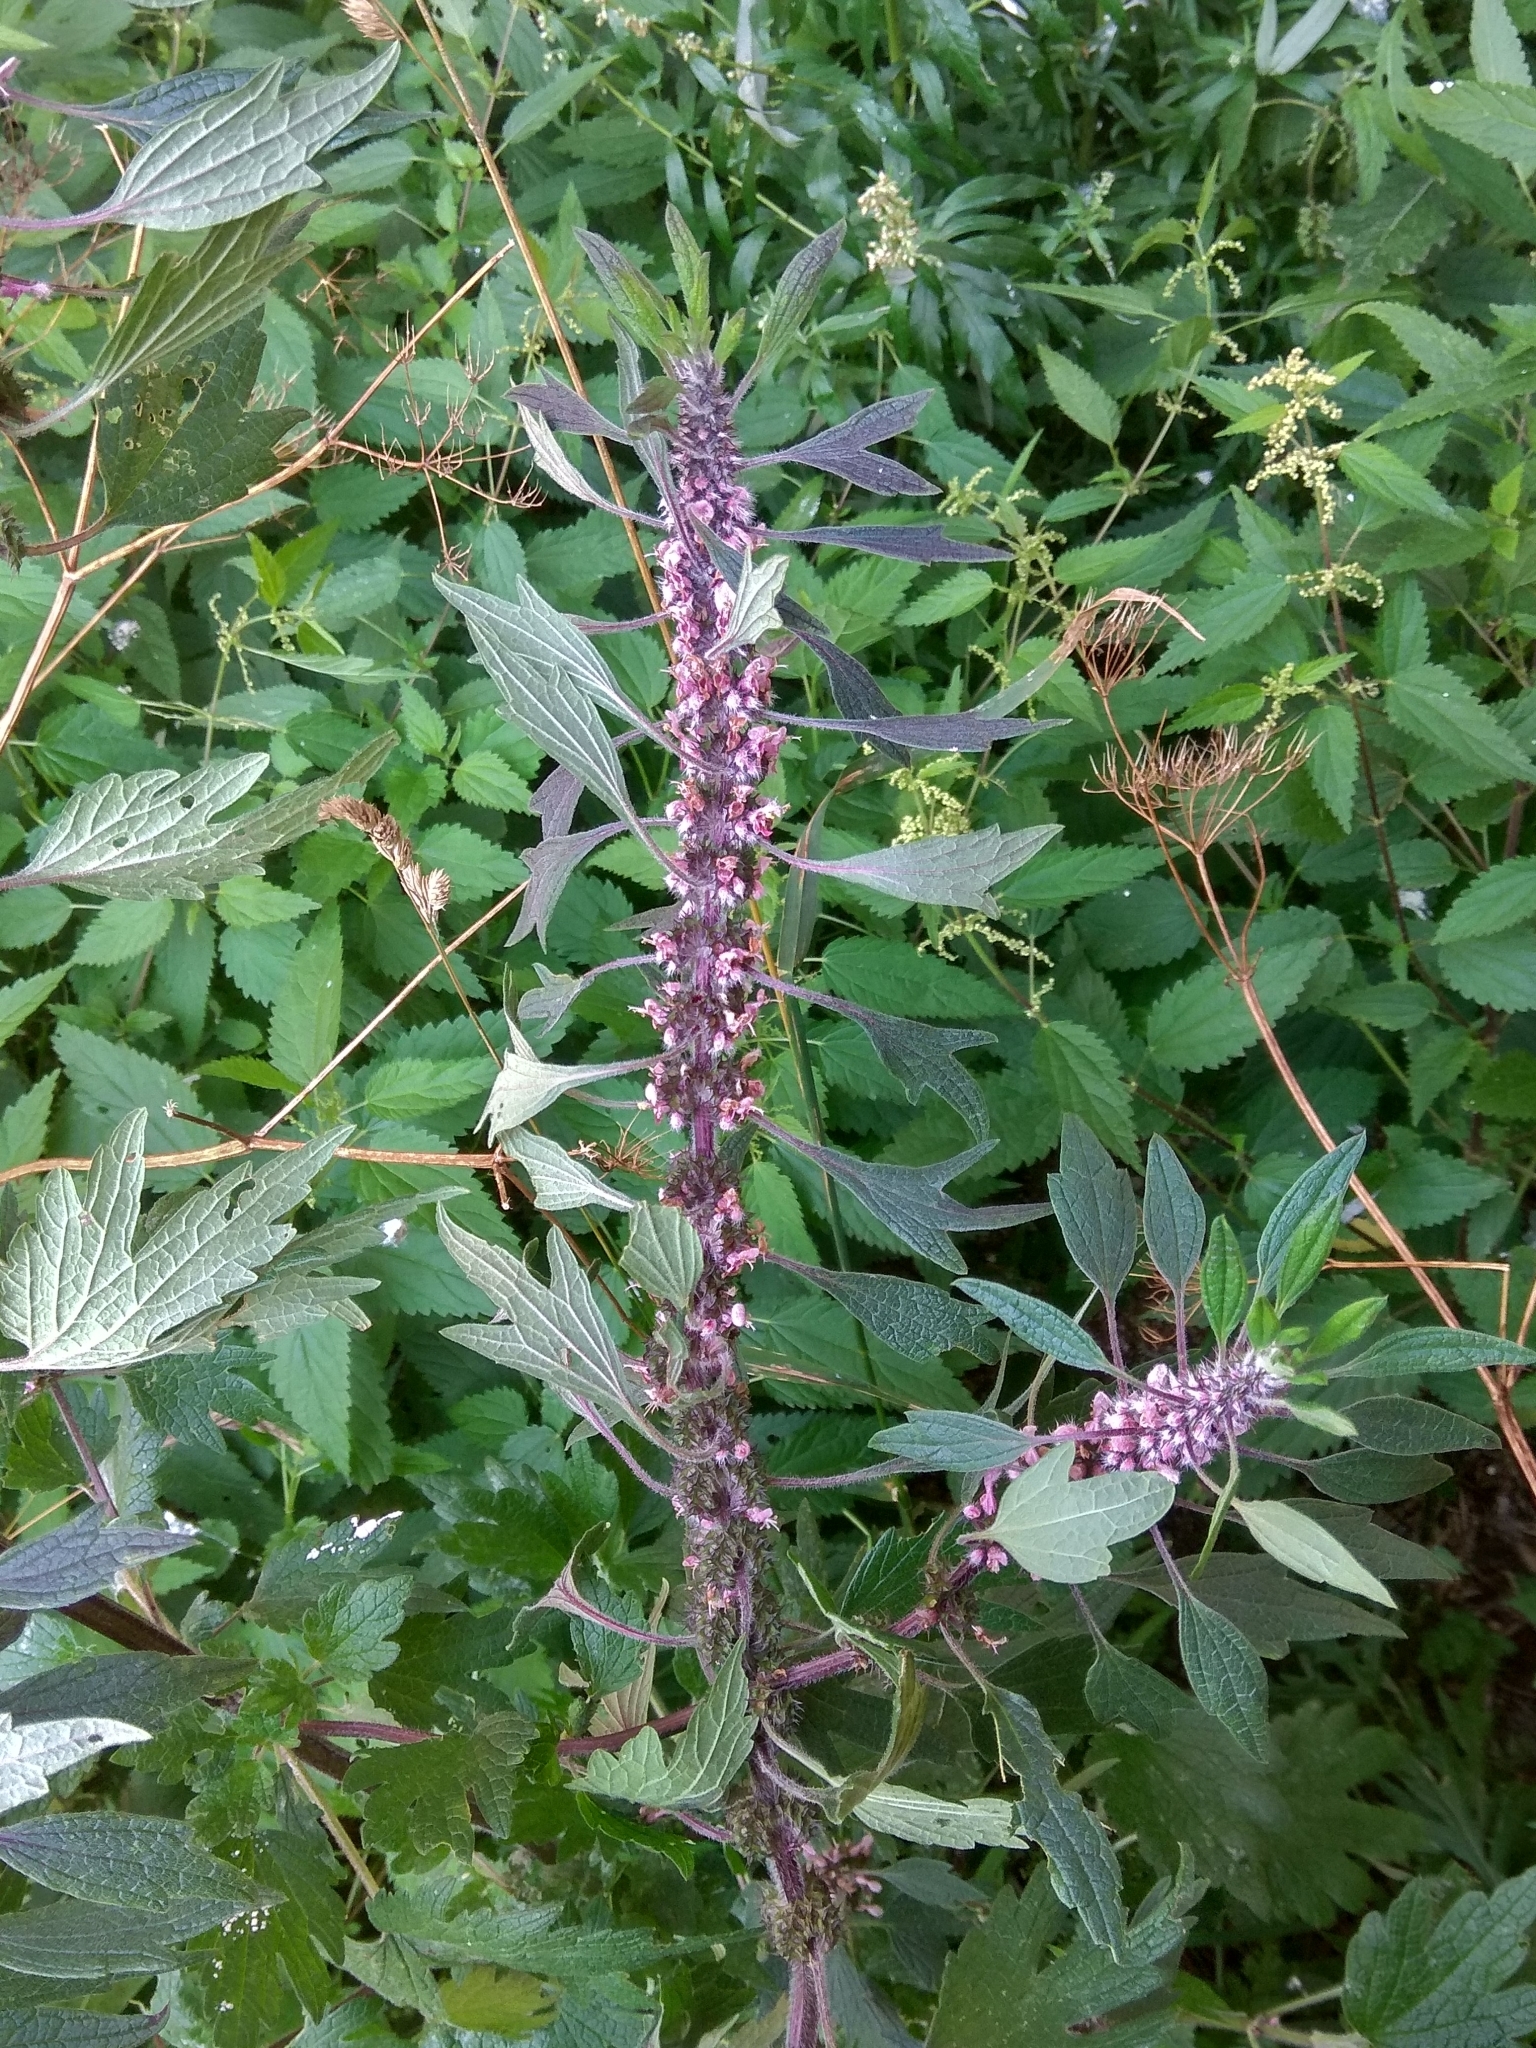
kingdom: Plantae
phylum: Tracheophyta
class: Magnoliopsida
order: Lamiales
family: Lamiaceae
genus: Leonurus
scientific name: Leonurus quinquelobatus
